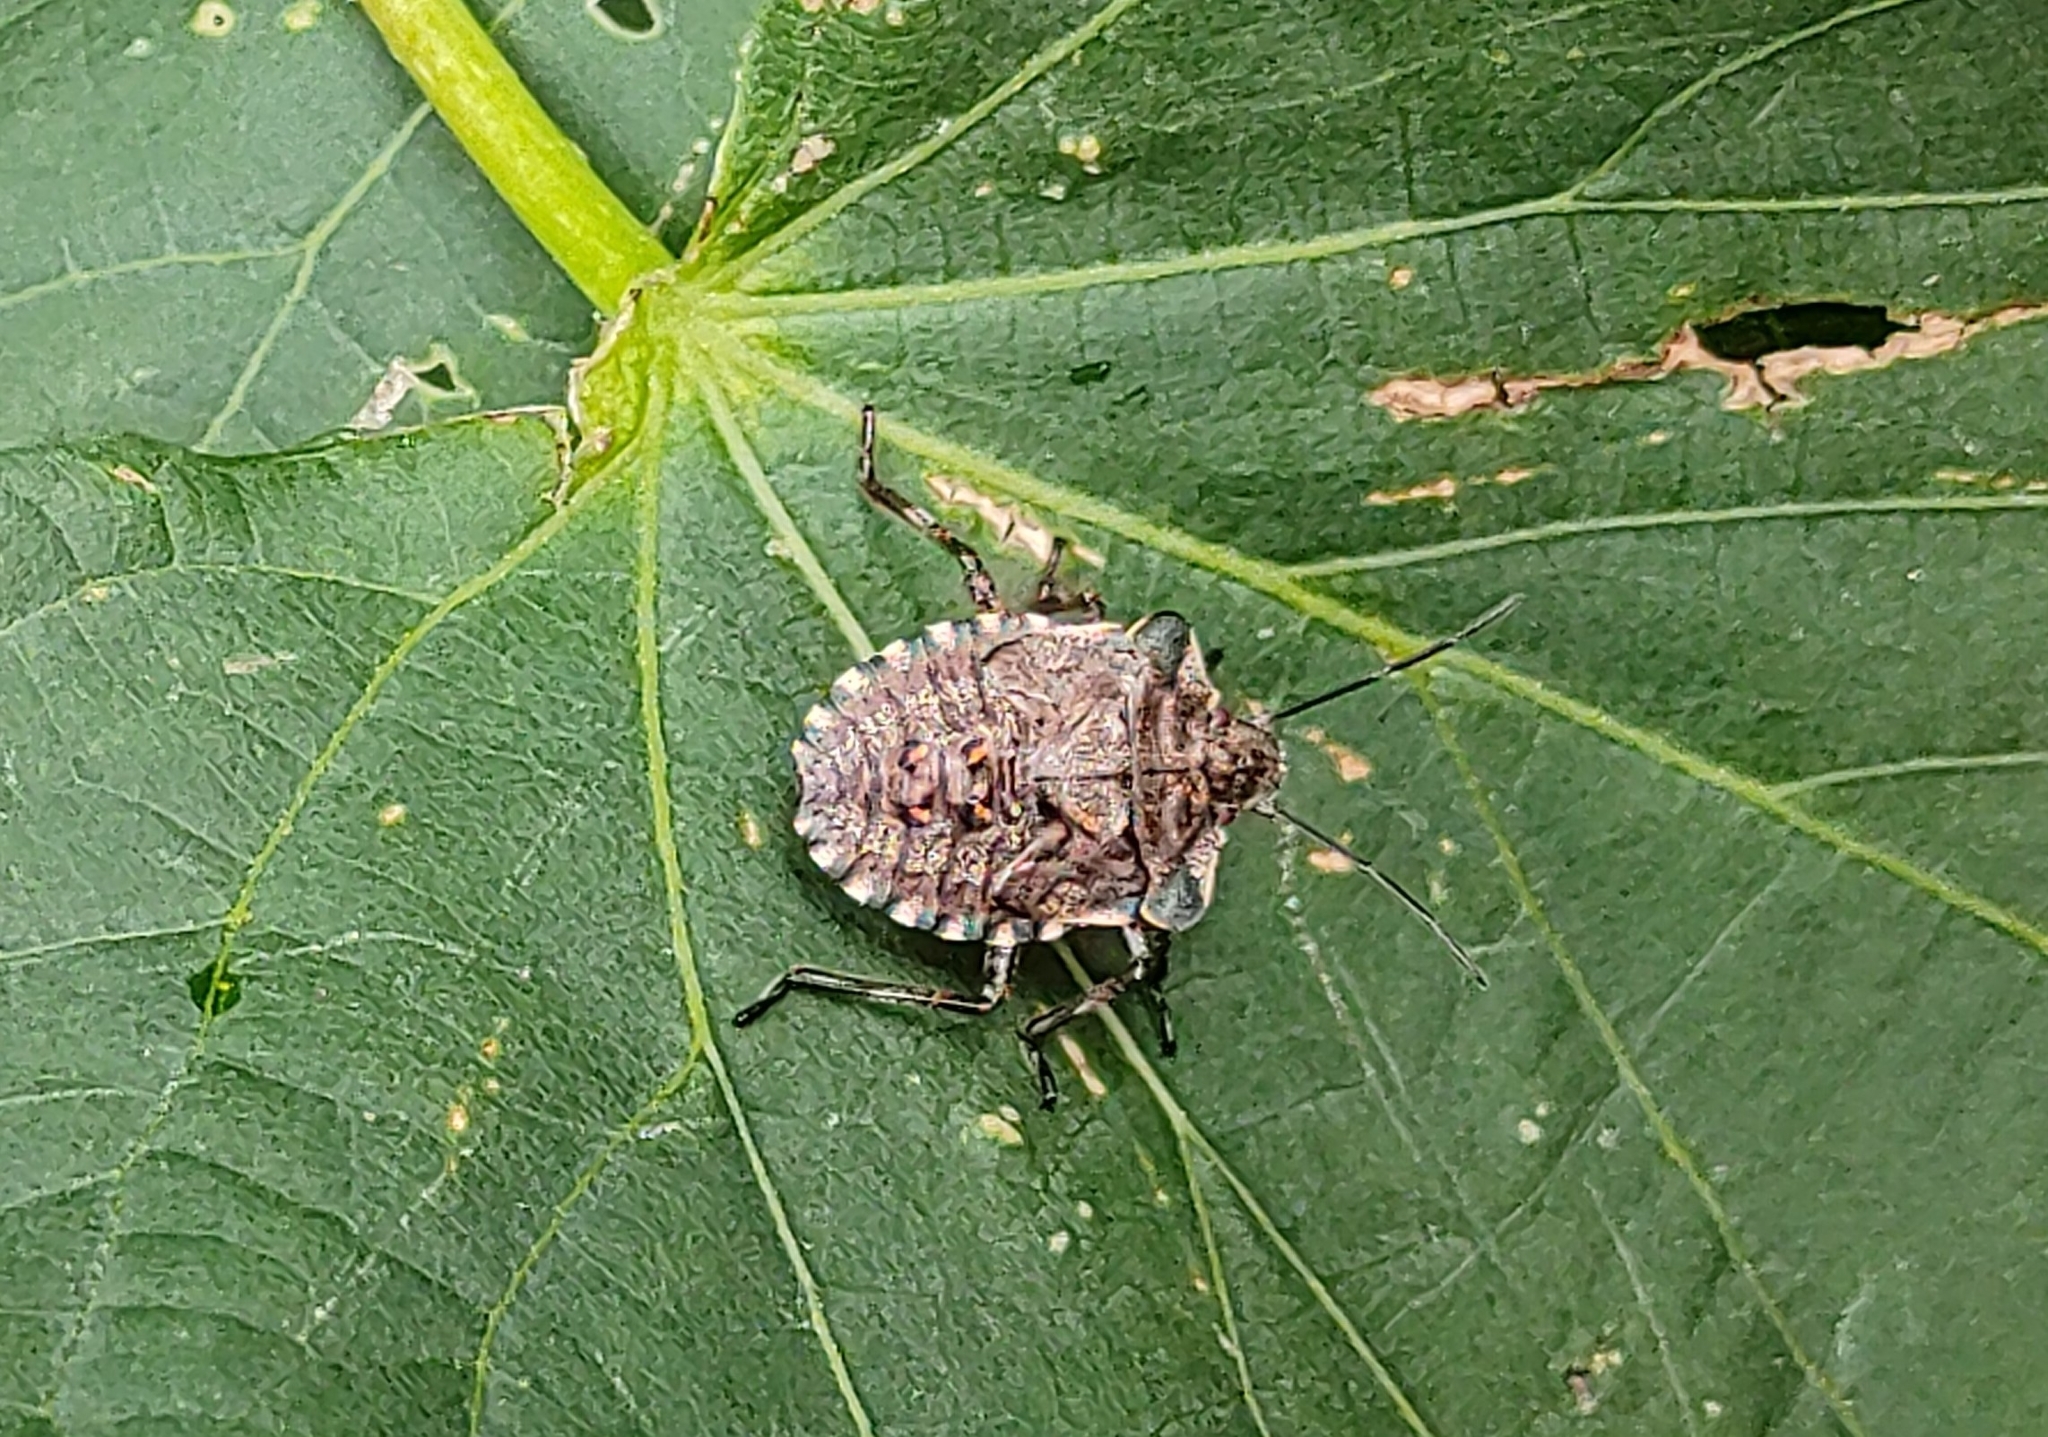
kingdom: Animalia
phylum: Arthropoda
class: Insecta
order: Hemiptera
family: Pentatomidae
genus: Pentatoma
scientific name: Pentatoma rufipes
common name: Forest bug
